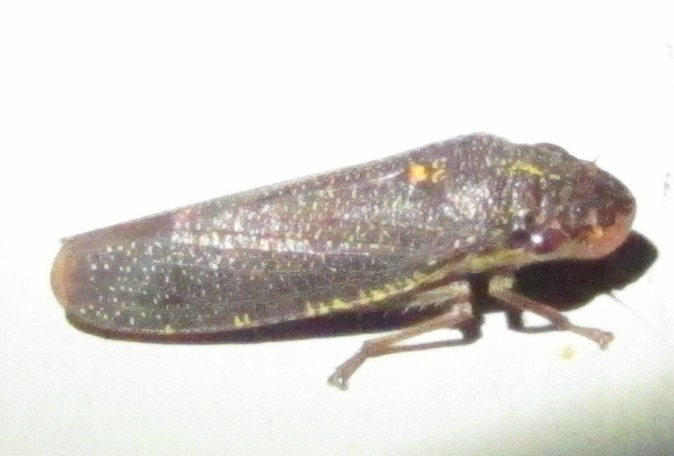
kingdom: Animalia
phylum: Arthropoda
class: Insecta
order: Hemiptera
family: Cicadellidae
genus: Paraulacizes
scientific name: Paraulacizes irrorata
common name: Speckled sharpshooter
